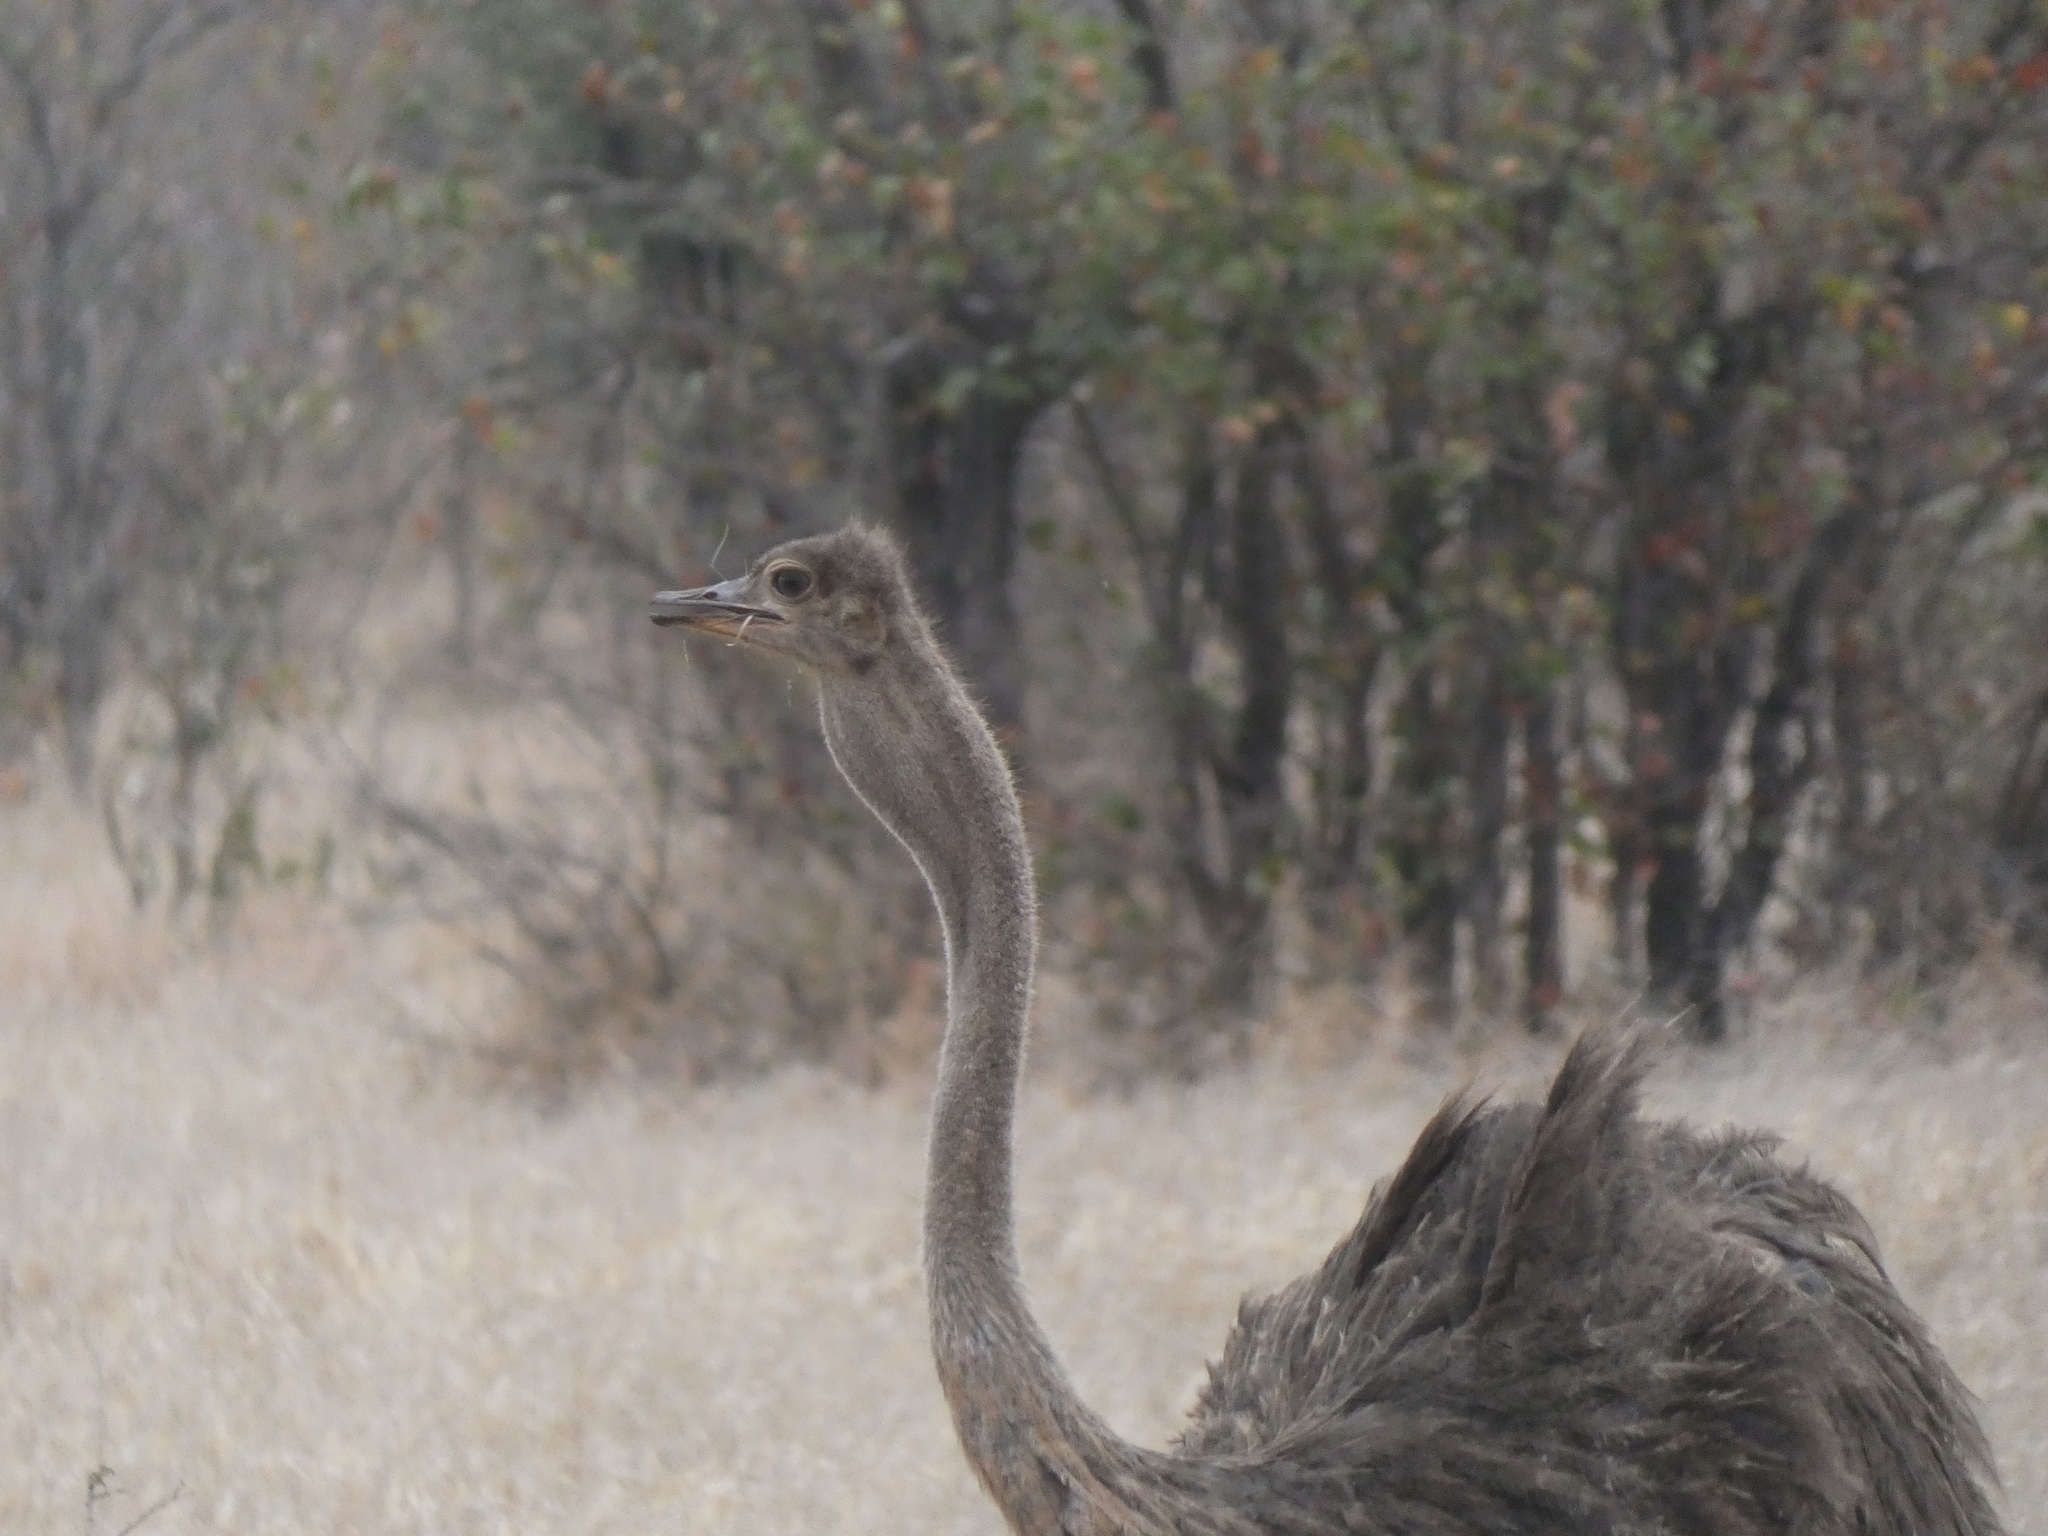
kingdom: Animalia
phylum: Chordata
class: Aves
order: Struthioniformes
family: Struthionidae
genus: Struthio
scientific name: Struthio camelus
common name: Common ostrich
